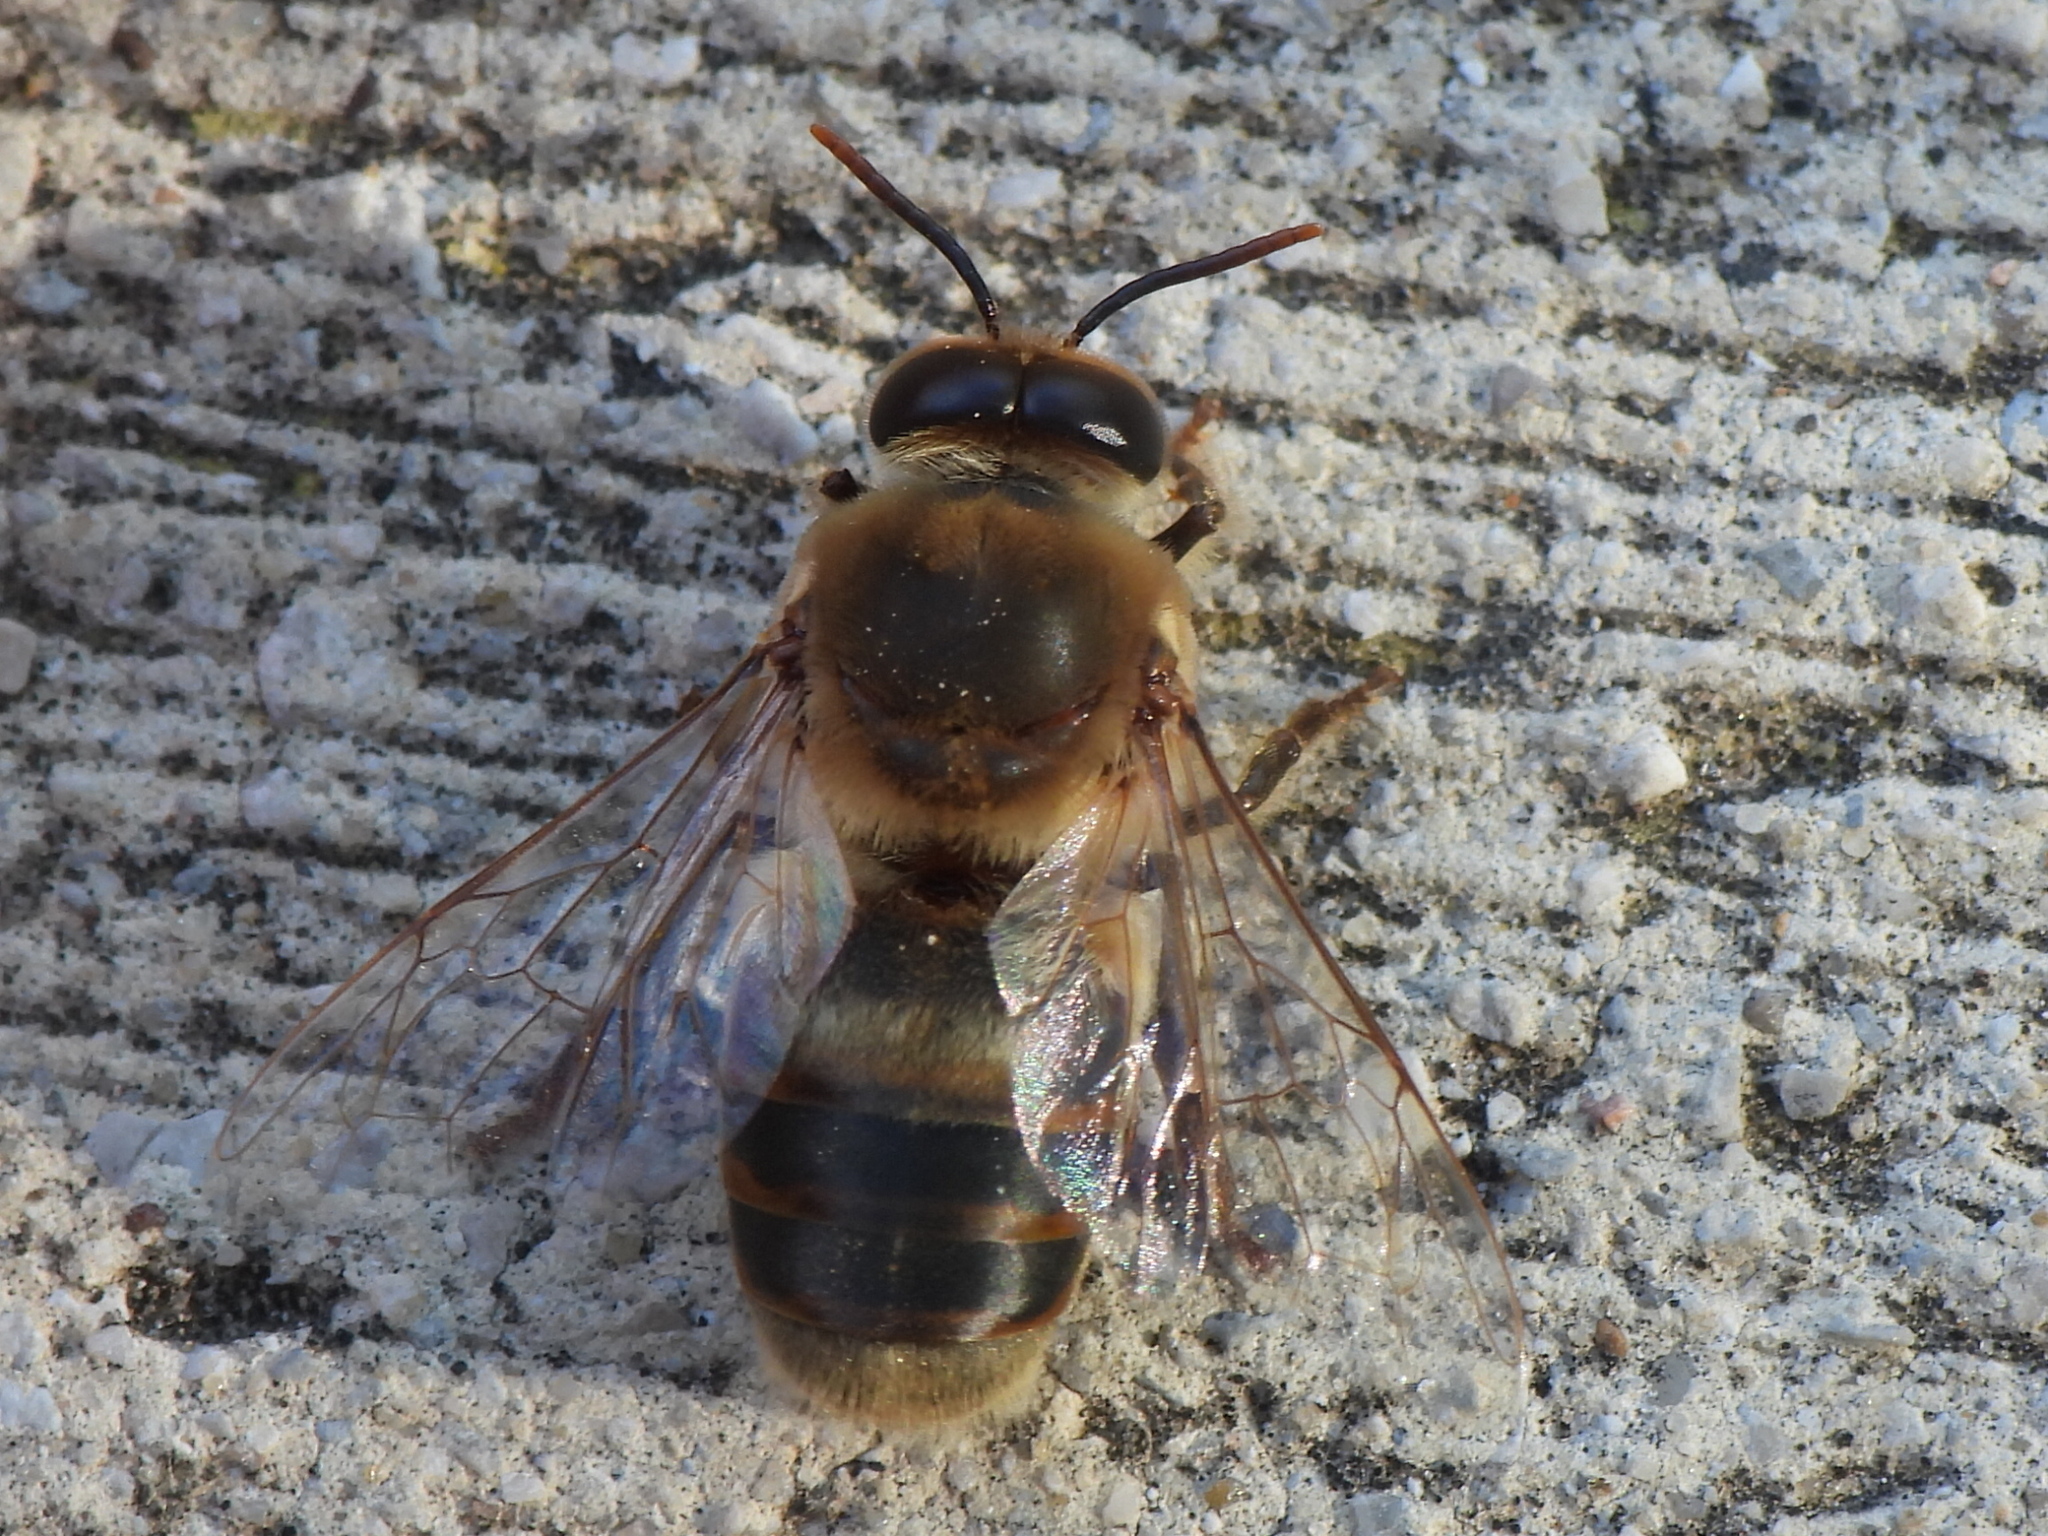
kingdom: Animalia
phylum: Arthropoda
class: Insecta
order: Hymenoptera
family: Apidae
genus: Apis
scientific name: Apis mellifera
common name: Honey bee
